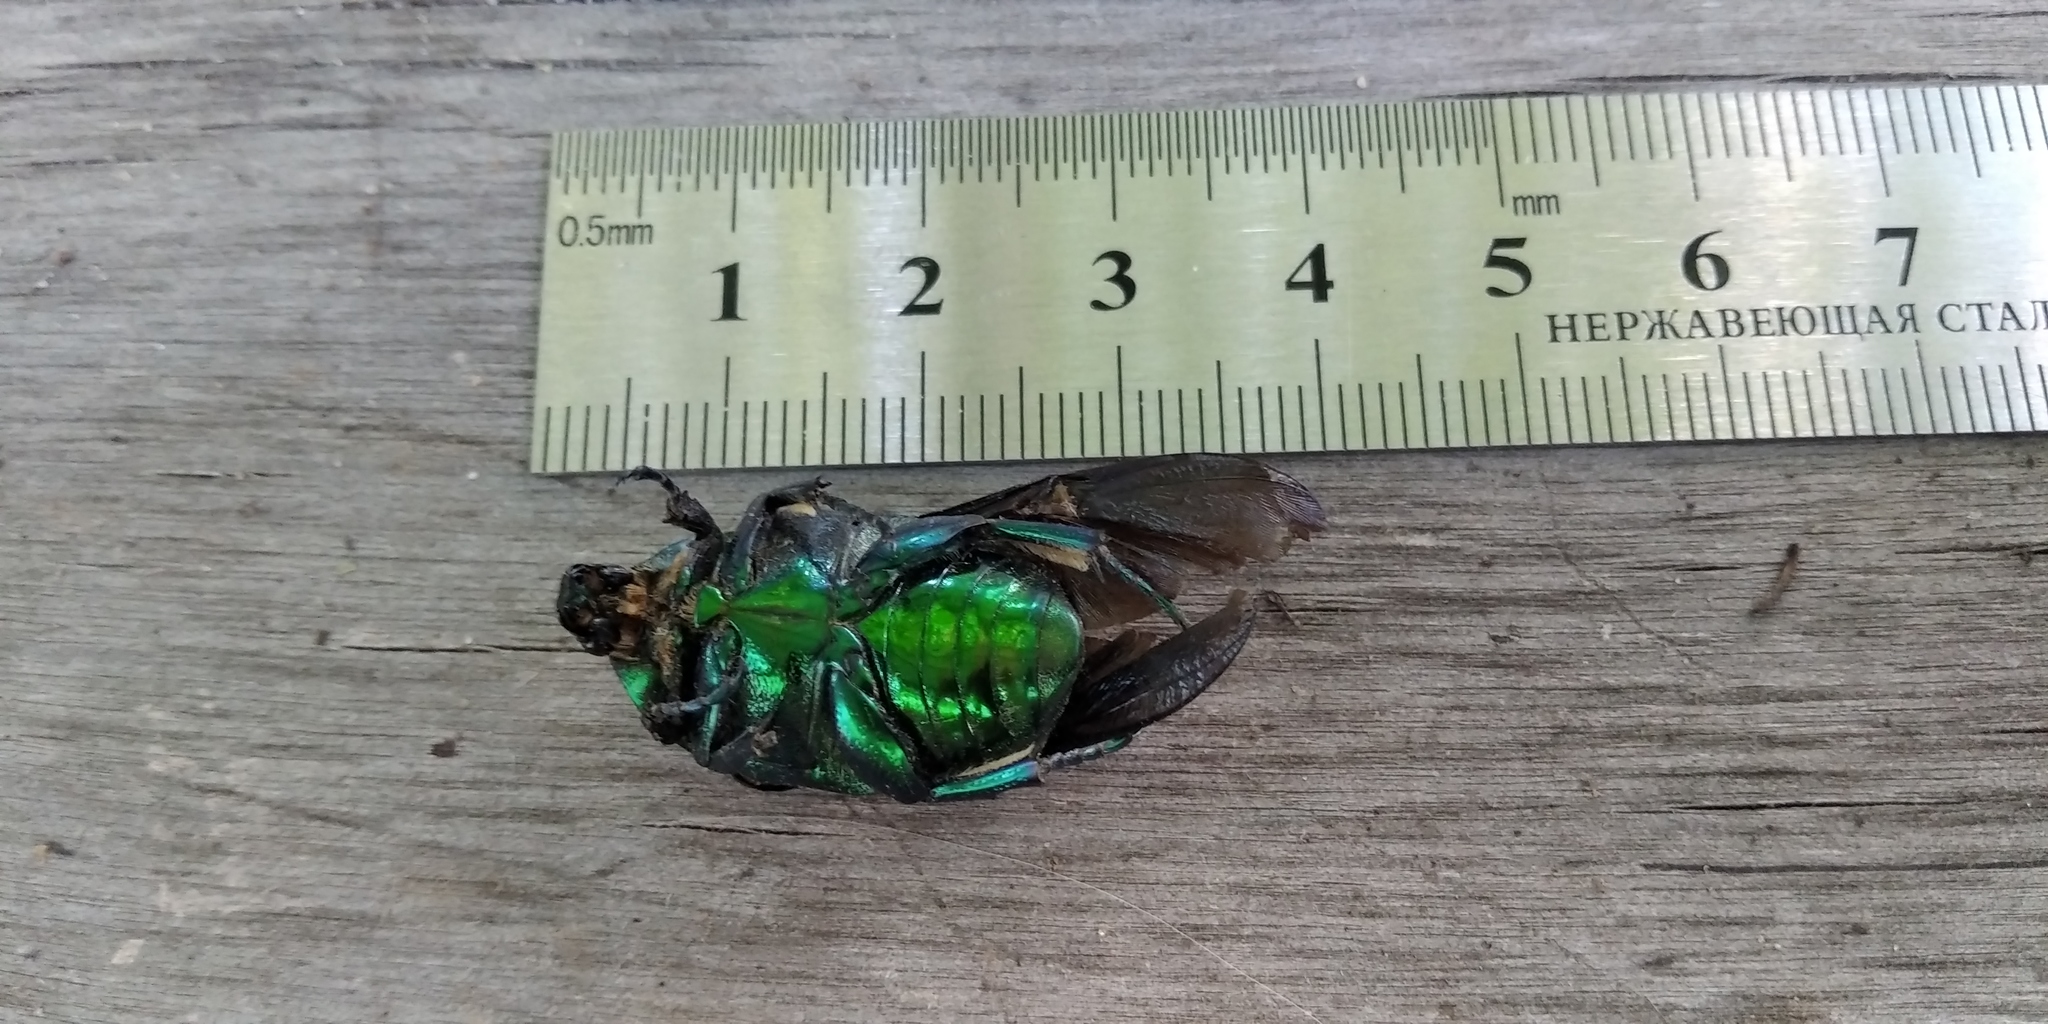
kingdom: Animalia
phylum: Arthropoda
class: Insecta
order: Coleoptera
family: Scarabaeidae
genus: Protaetia
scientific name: Protaetia affinis
